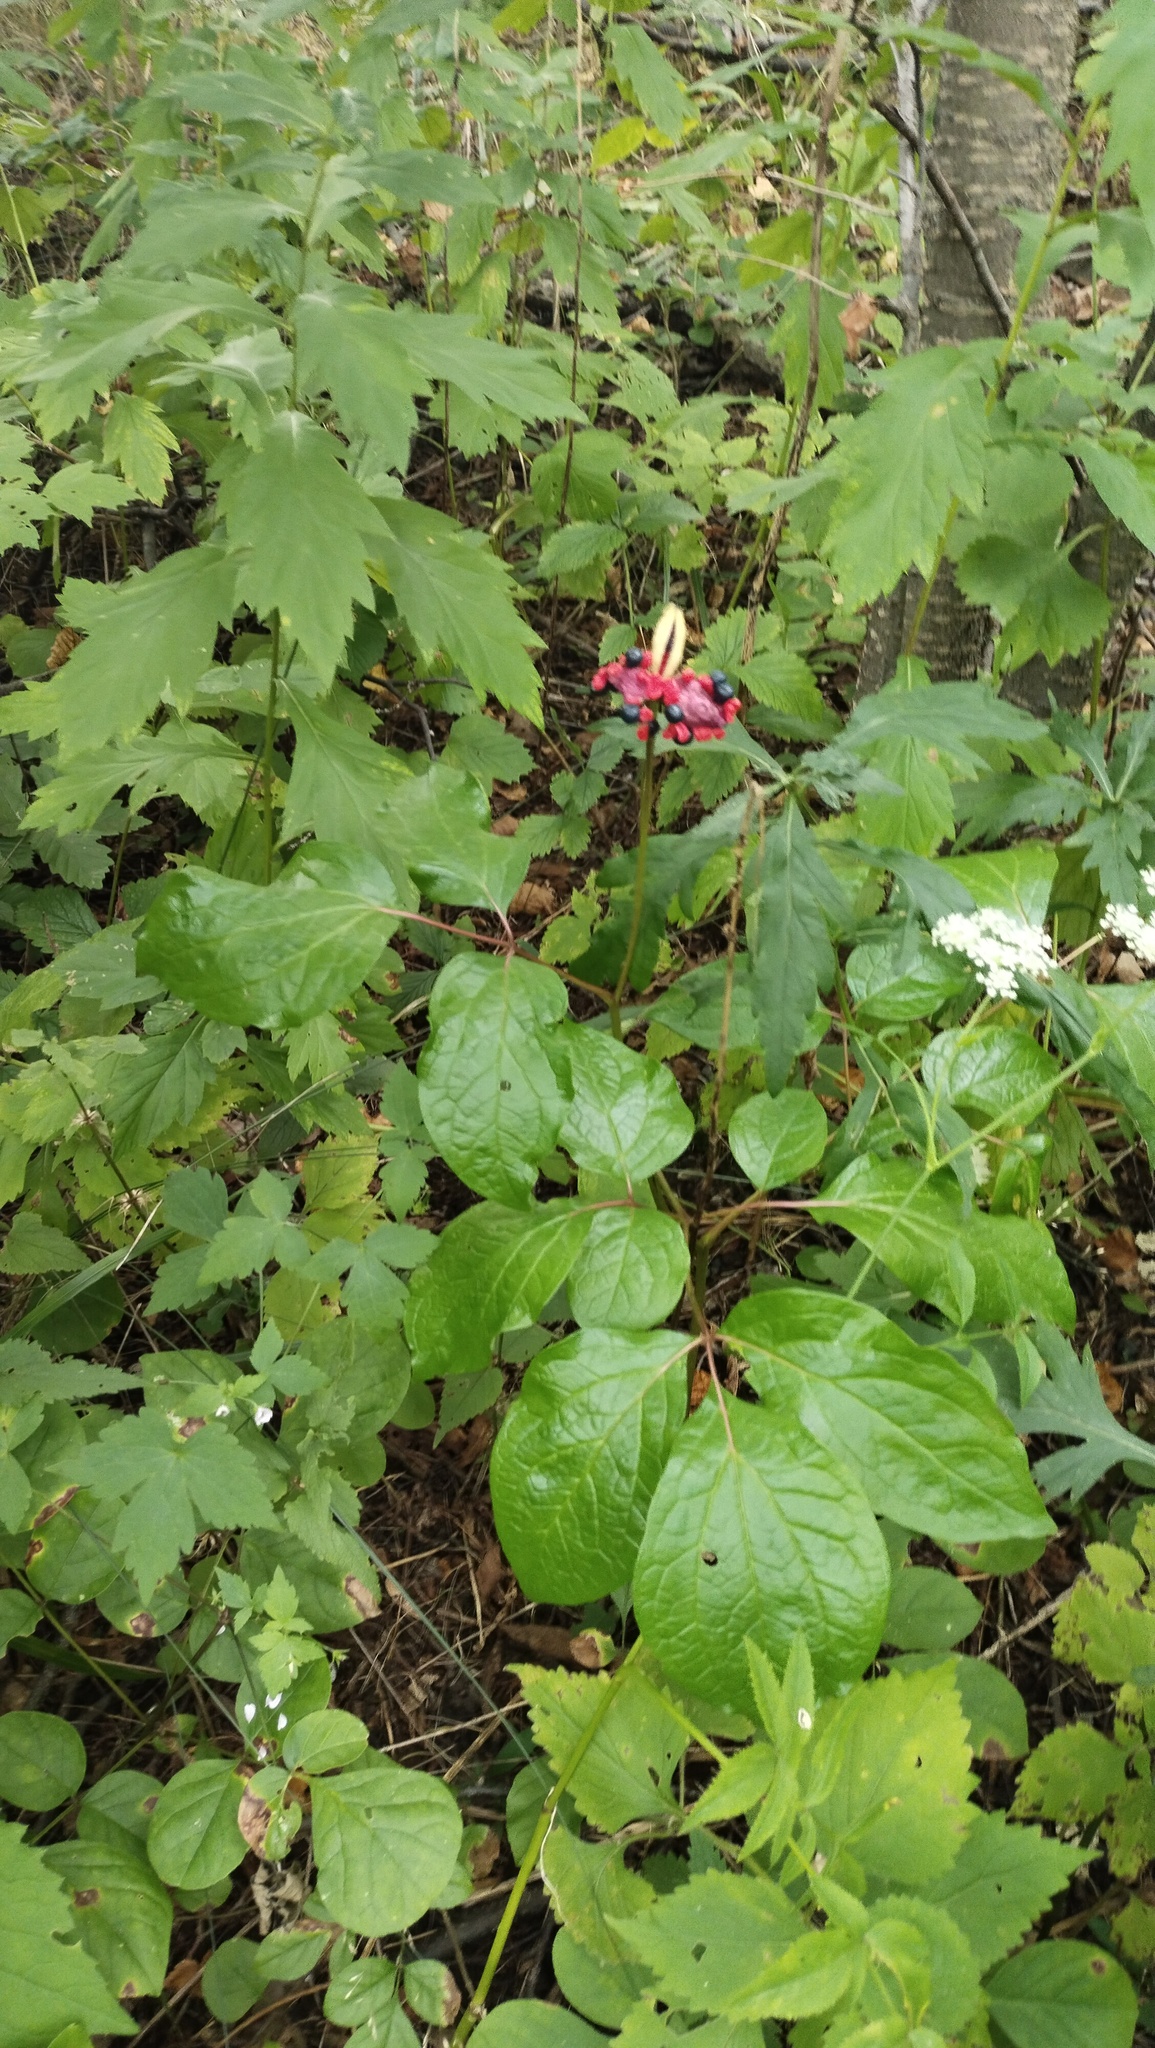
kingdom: Plantae
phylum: Tracheophyta
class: Magnoliopsida
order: Saxifragales
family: Paeoniaceae
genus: Paeonia
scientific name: Paeonia obovata
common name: Chinese peony
